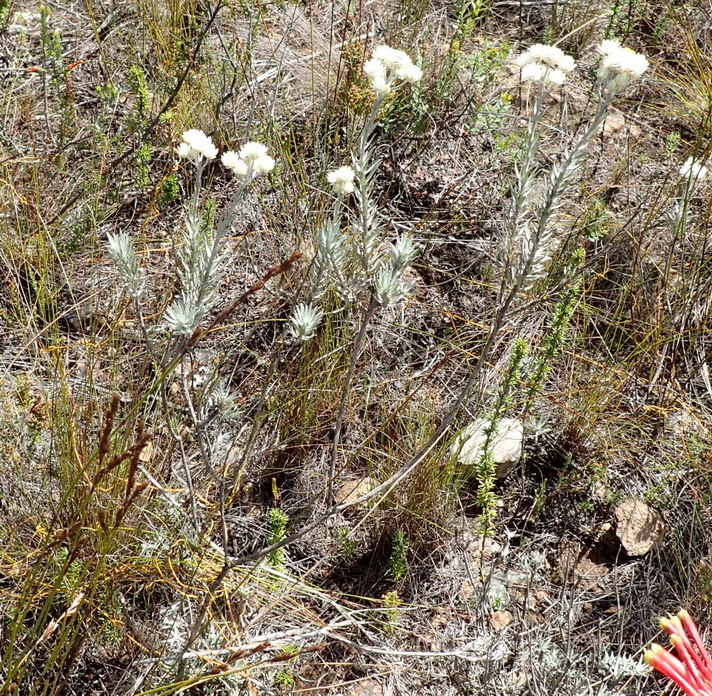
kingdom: Plantae
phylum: Tracheophyta
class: Magnoliopsida
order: Asterales
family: Asteraceae
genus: Achyranthemum
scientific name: Achyranthemum paniculatum
